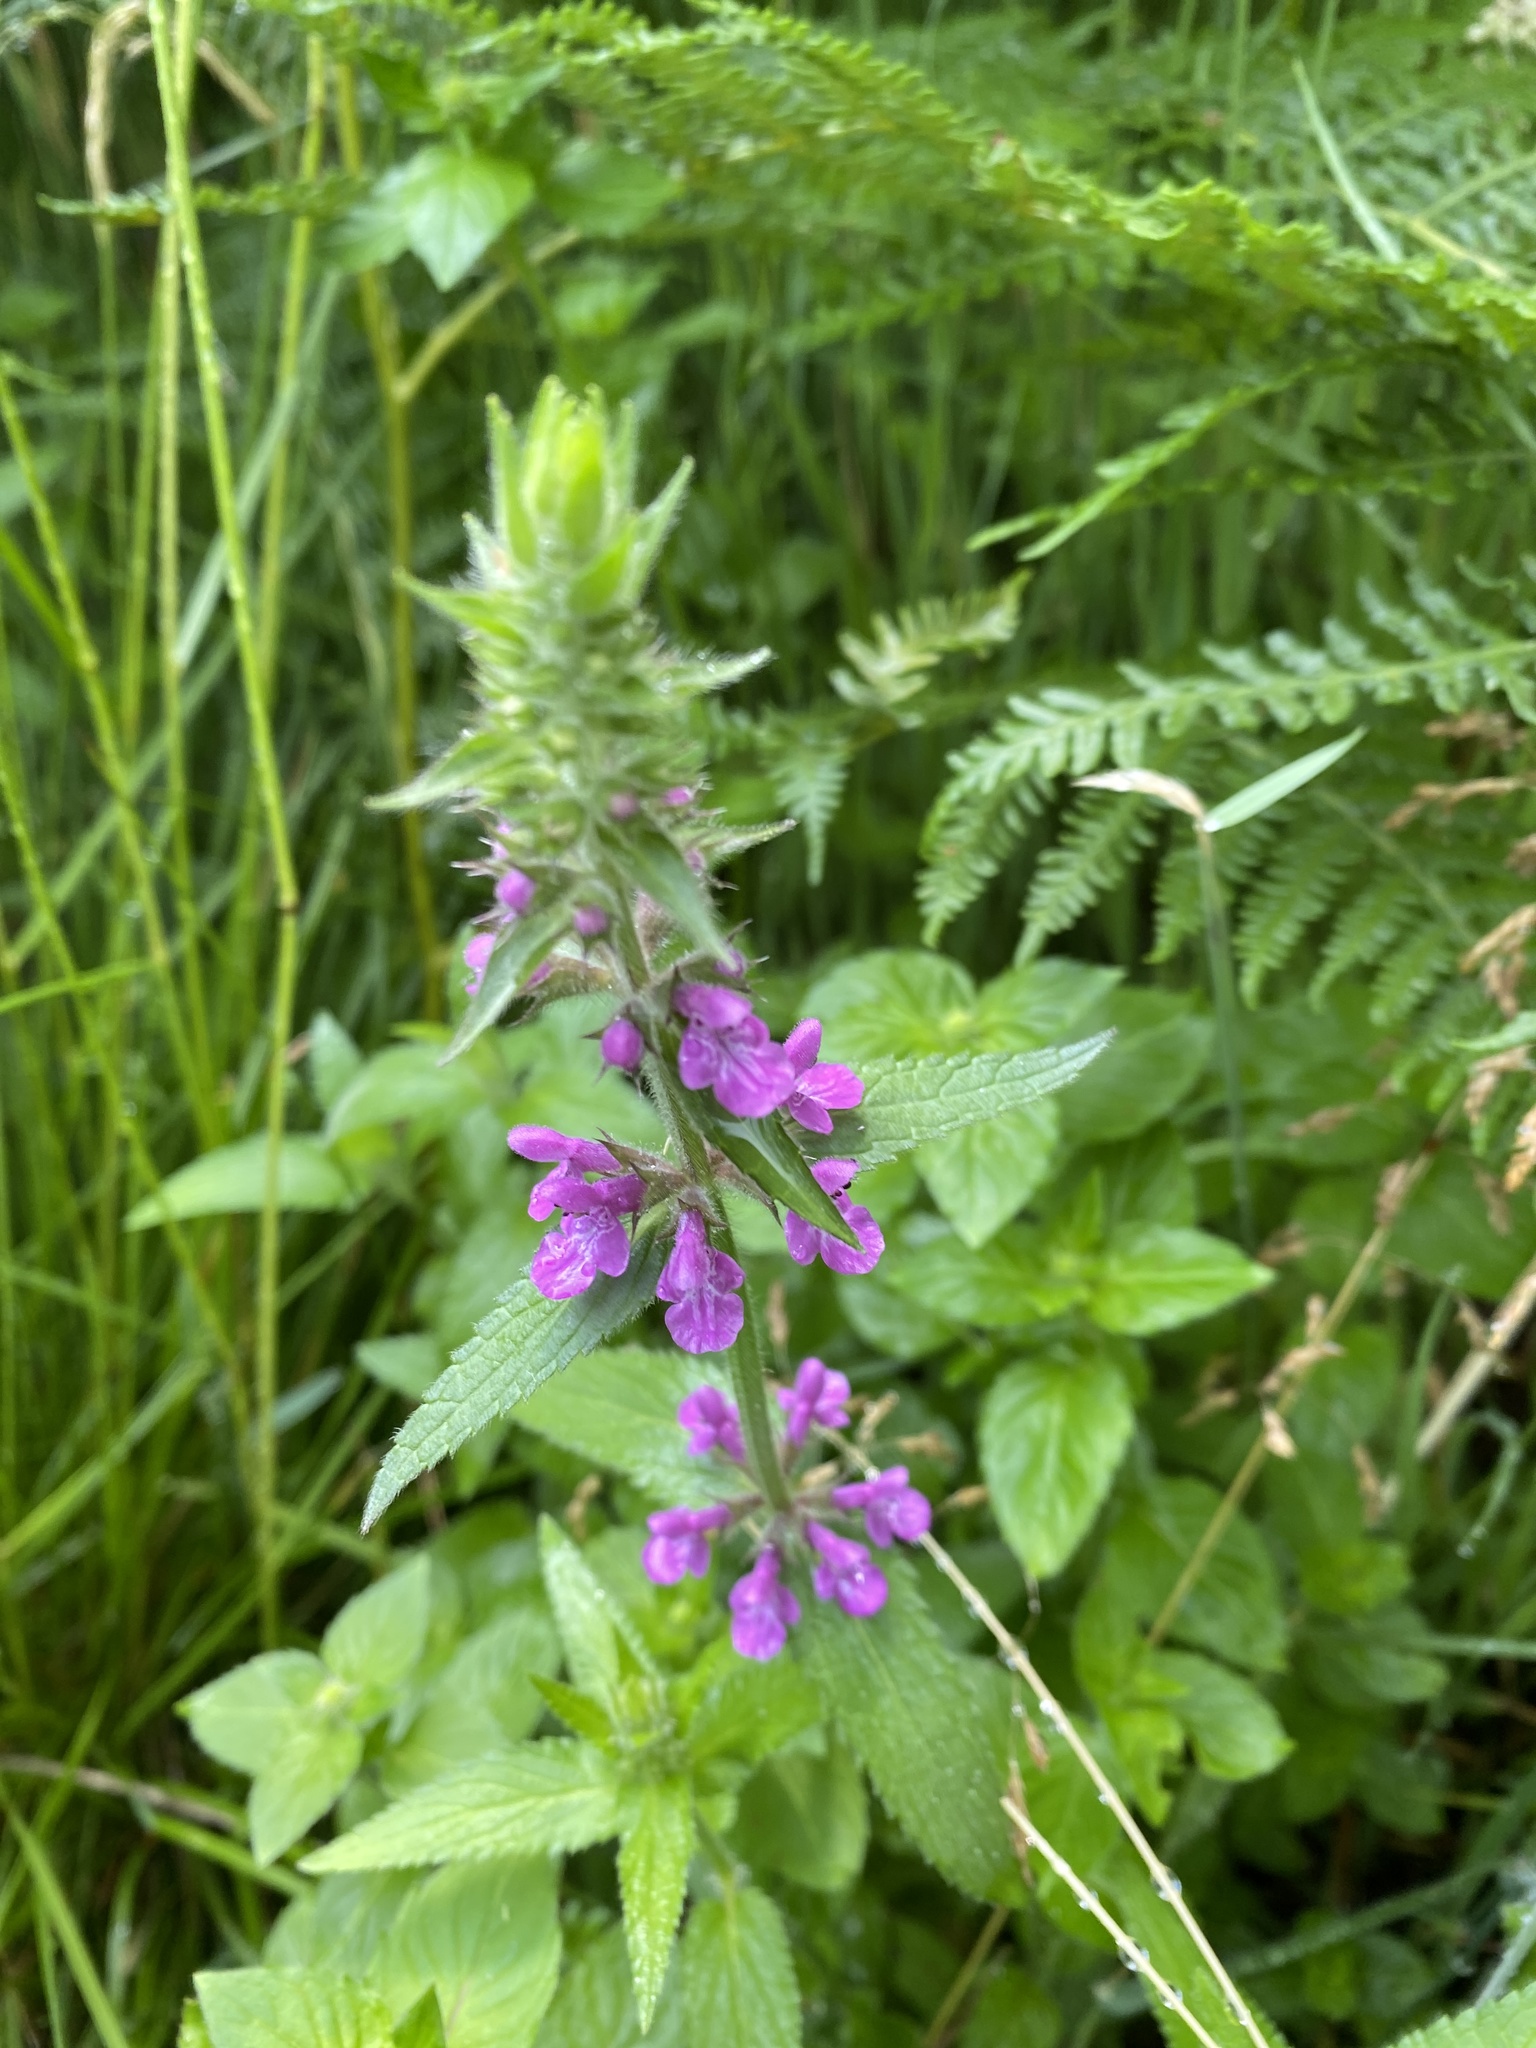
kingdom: Plantae
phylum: Tracheophyta
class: Magnoliopsida
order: Lamiales
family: Lamiaceae
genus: Stachys
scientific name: Stachys palustris
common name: Marsh woundwort
